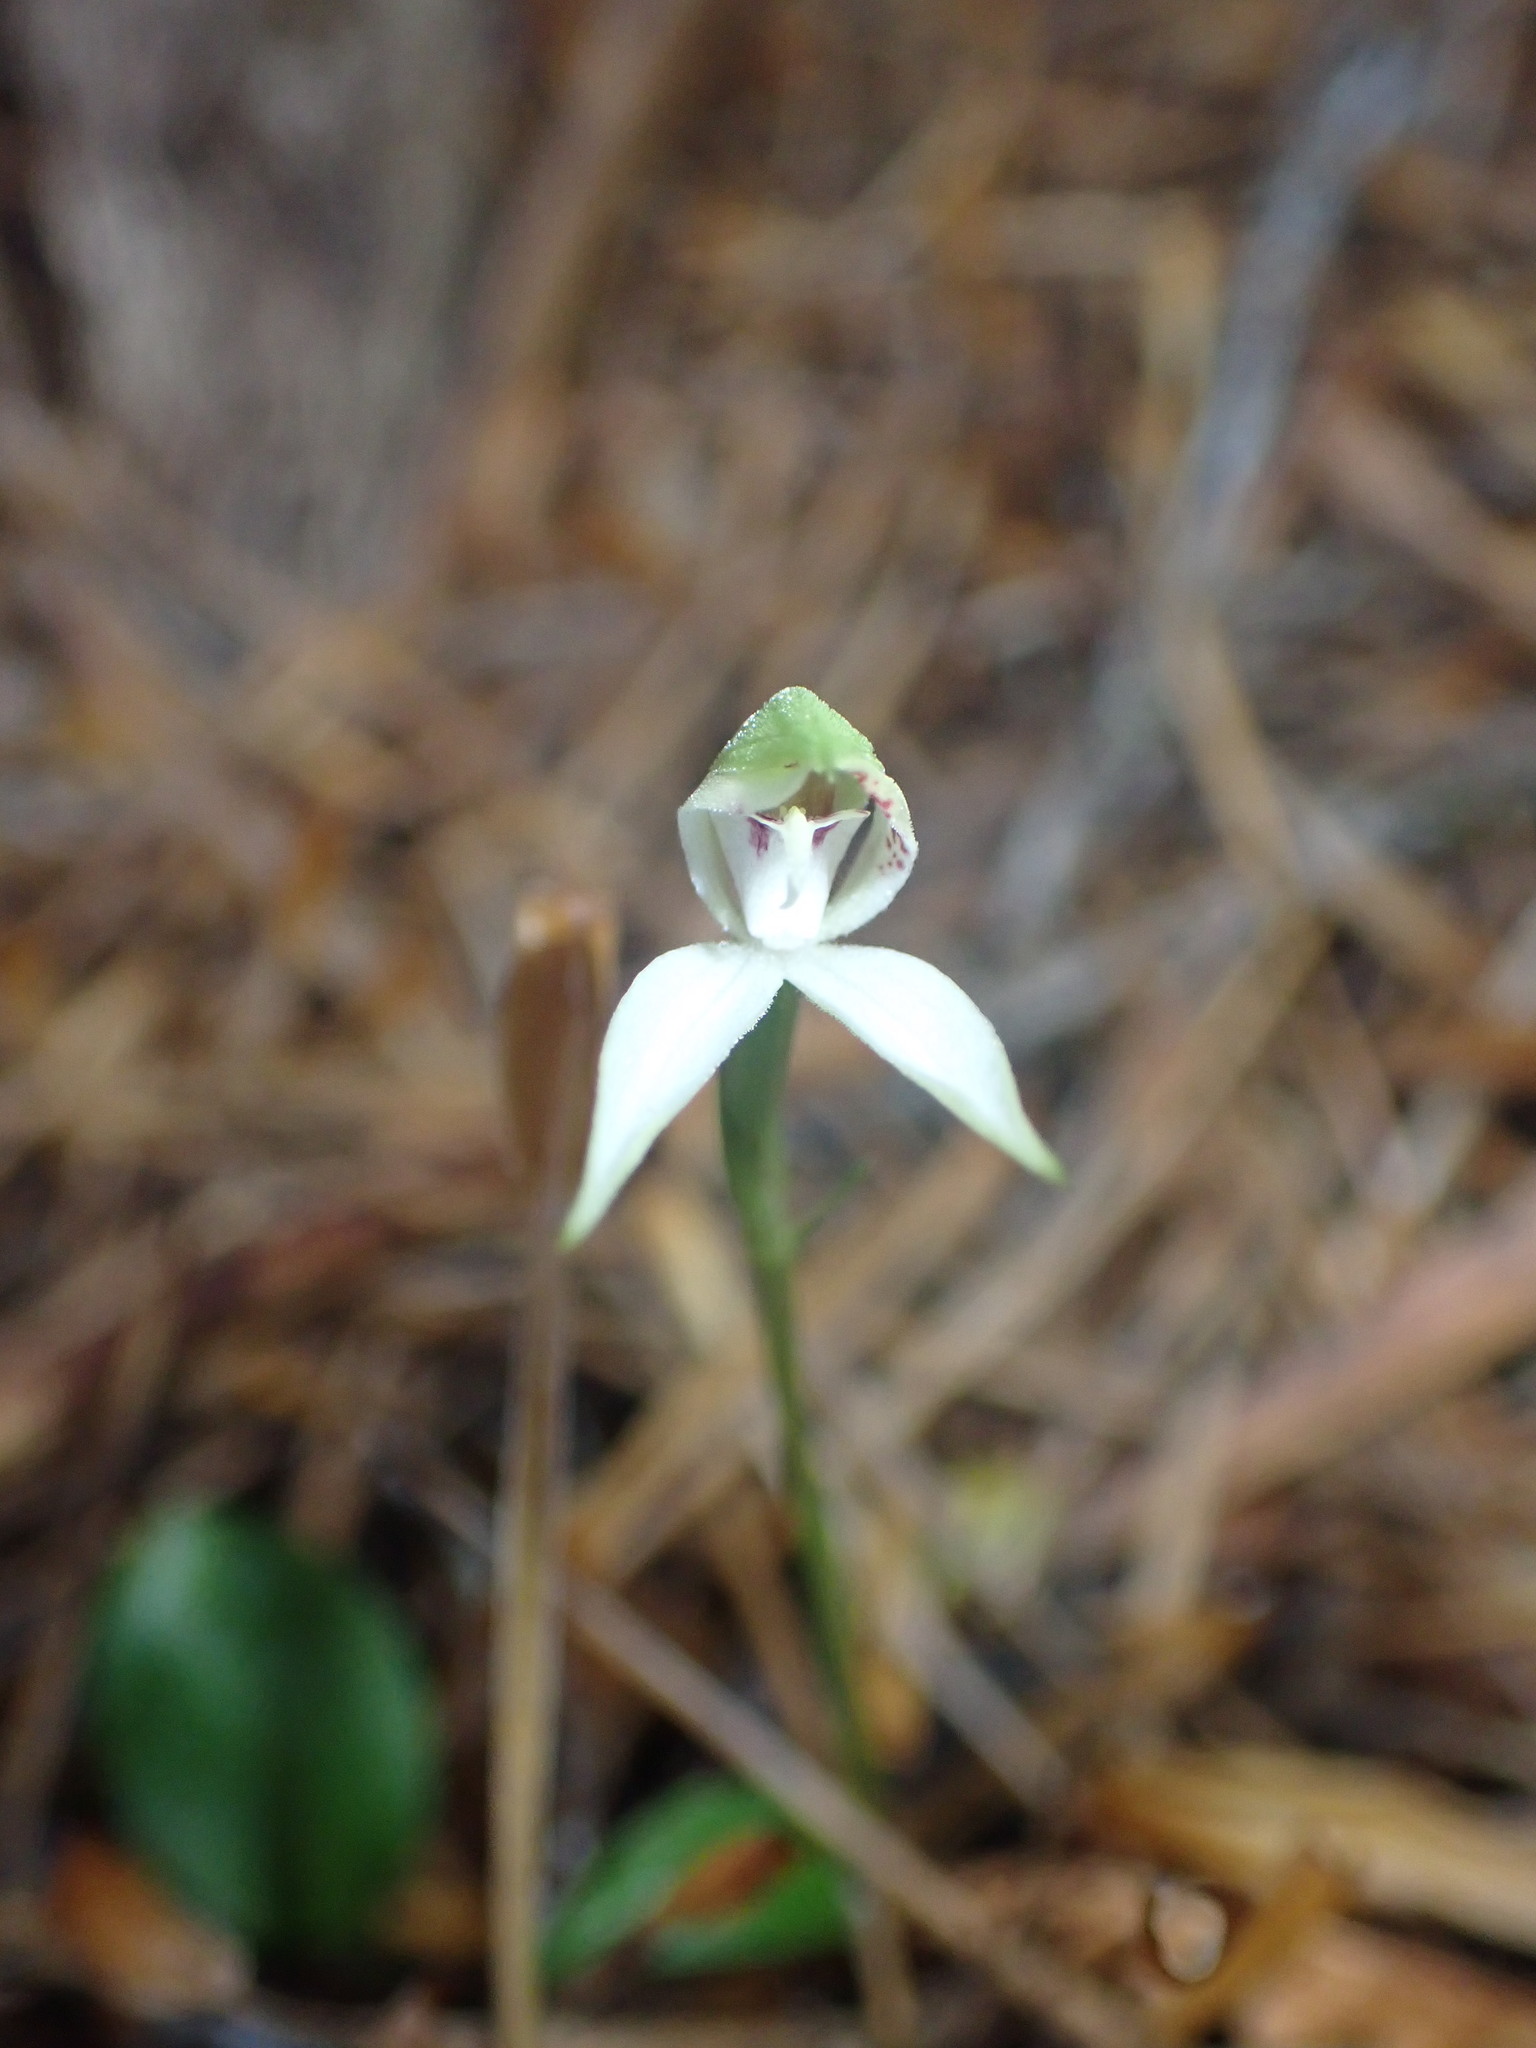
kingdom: Plantae
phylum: Tracheophyta
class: Liliopsida
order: Asparagales
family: Orchidaceae
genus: Adenochilus
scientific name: Adenochilus gracilis
